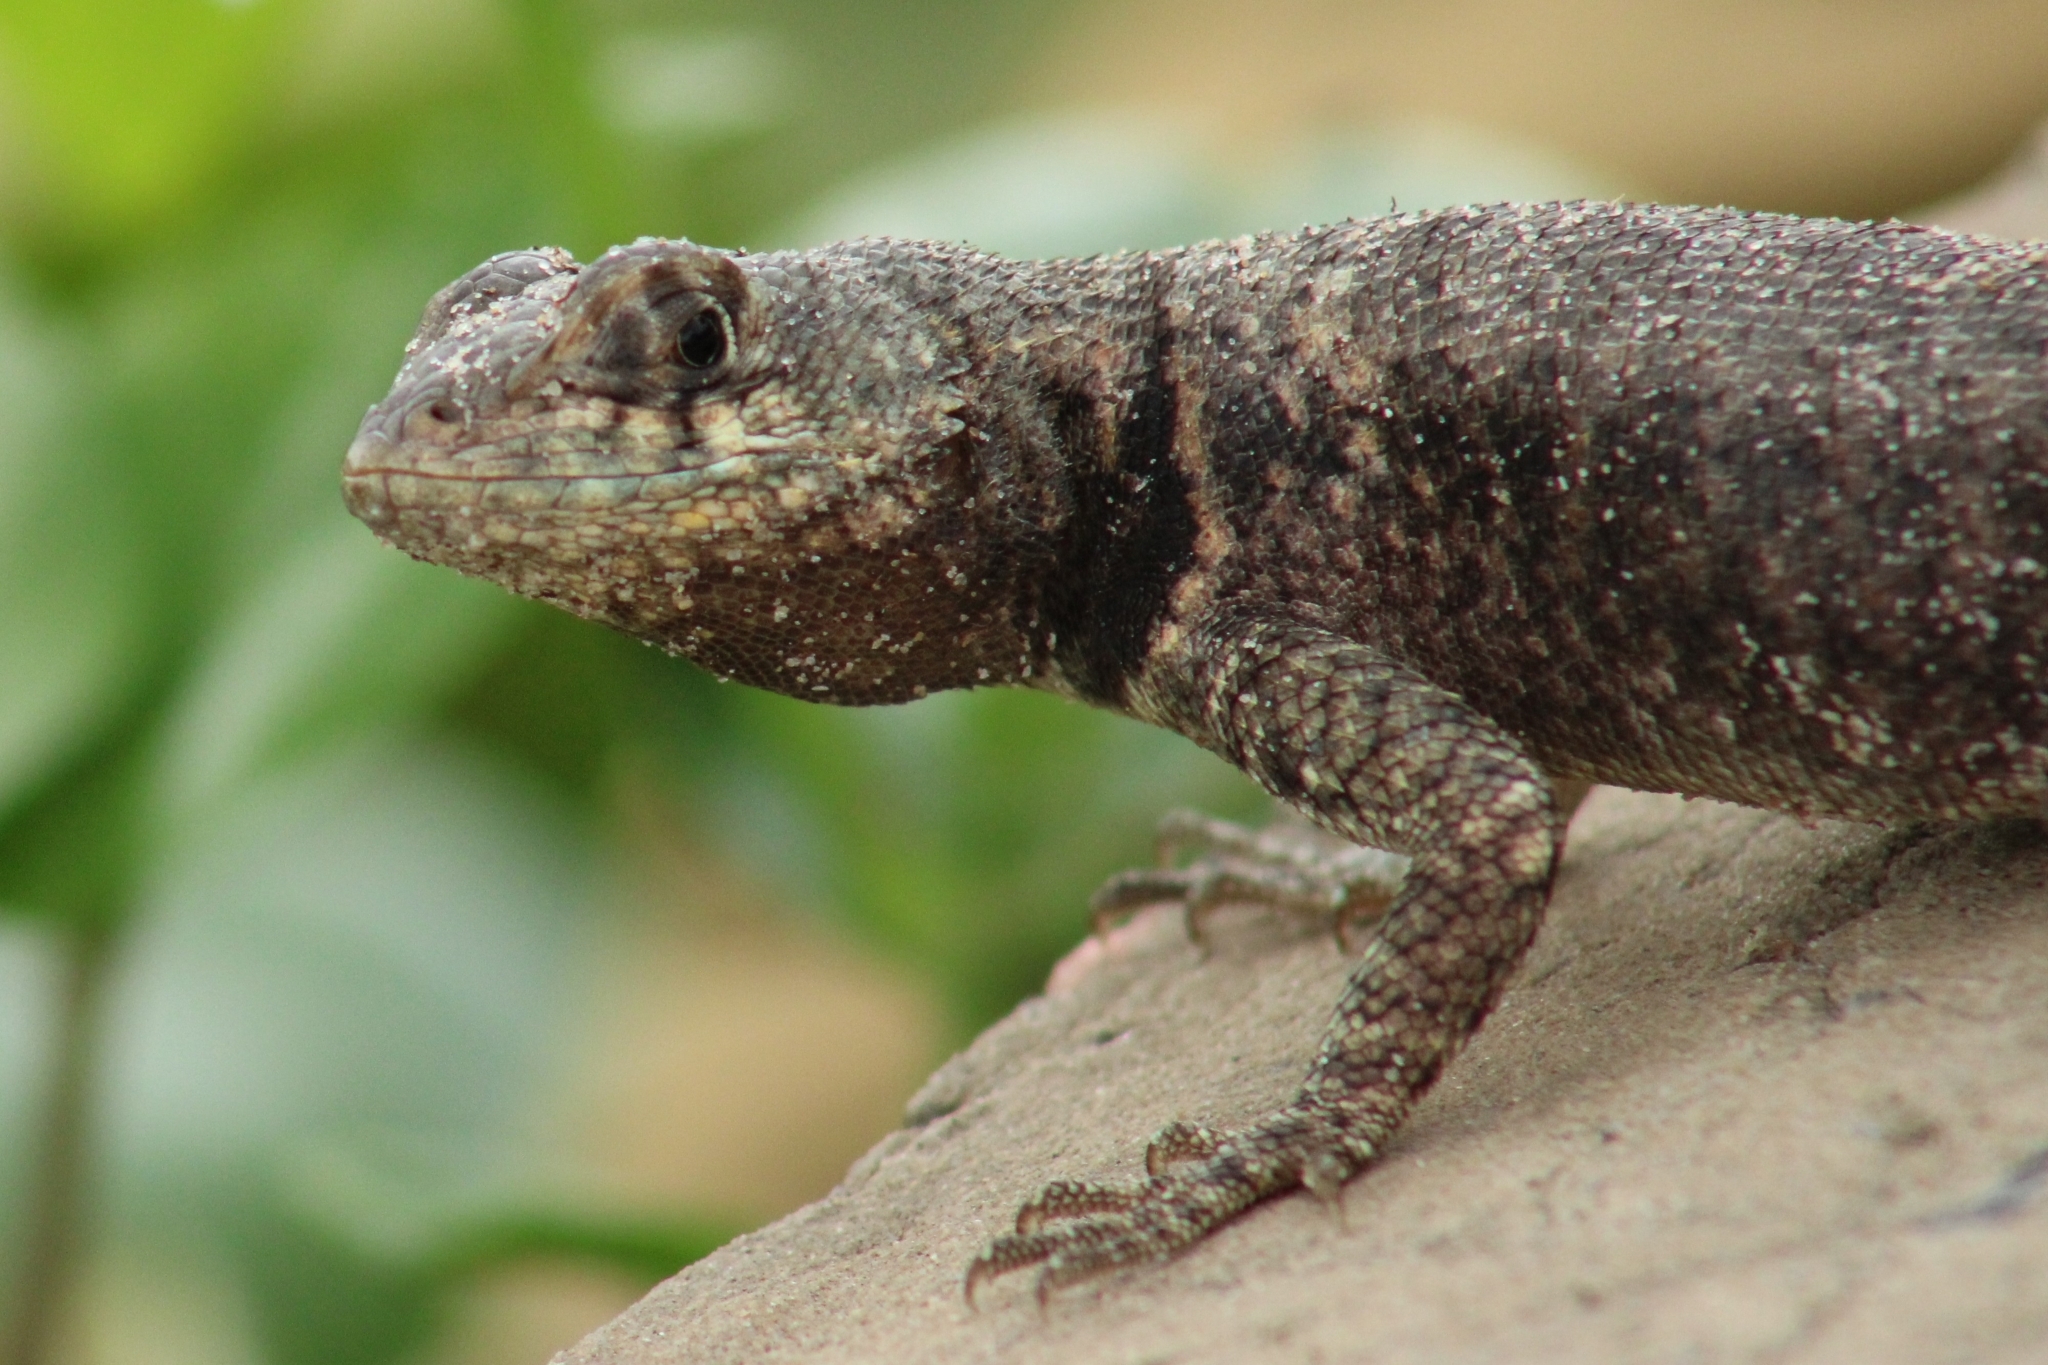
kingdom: Animalia
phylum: Chordata
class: Squamata
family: Tropiduridae
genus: Tropidurus
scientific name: Tropidurus hispidus
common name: Peters' lava lizard
